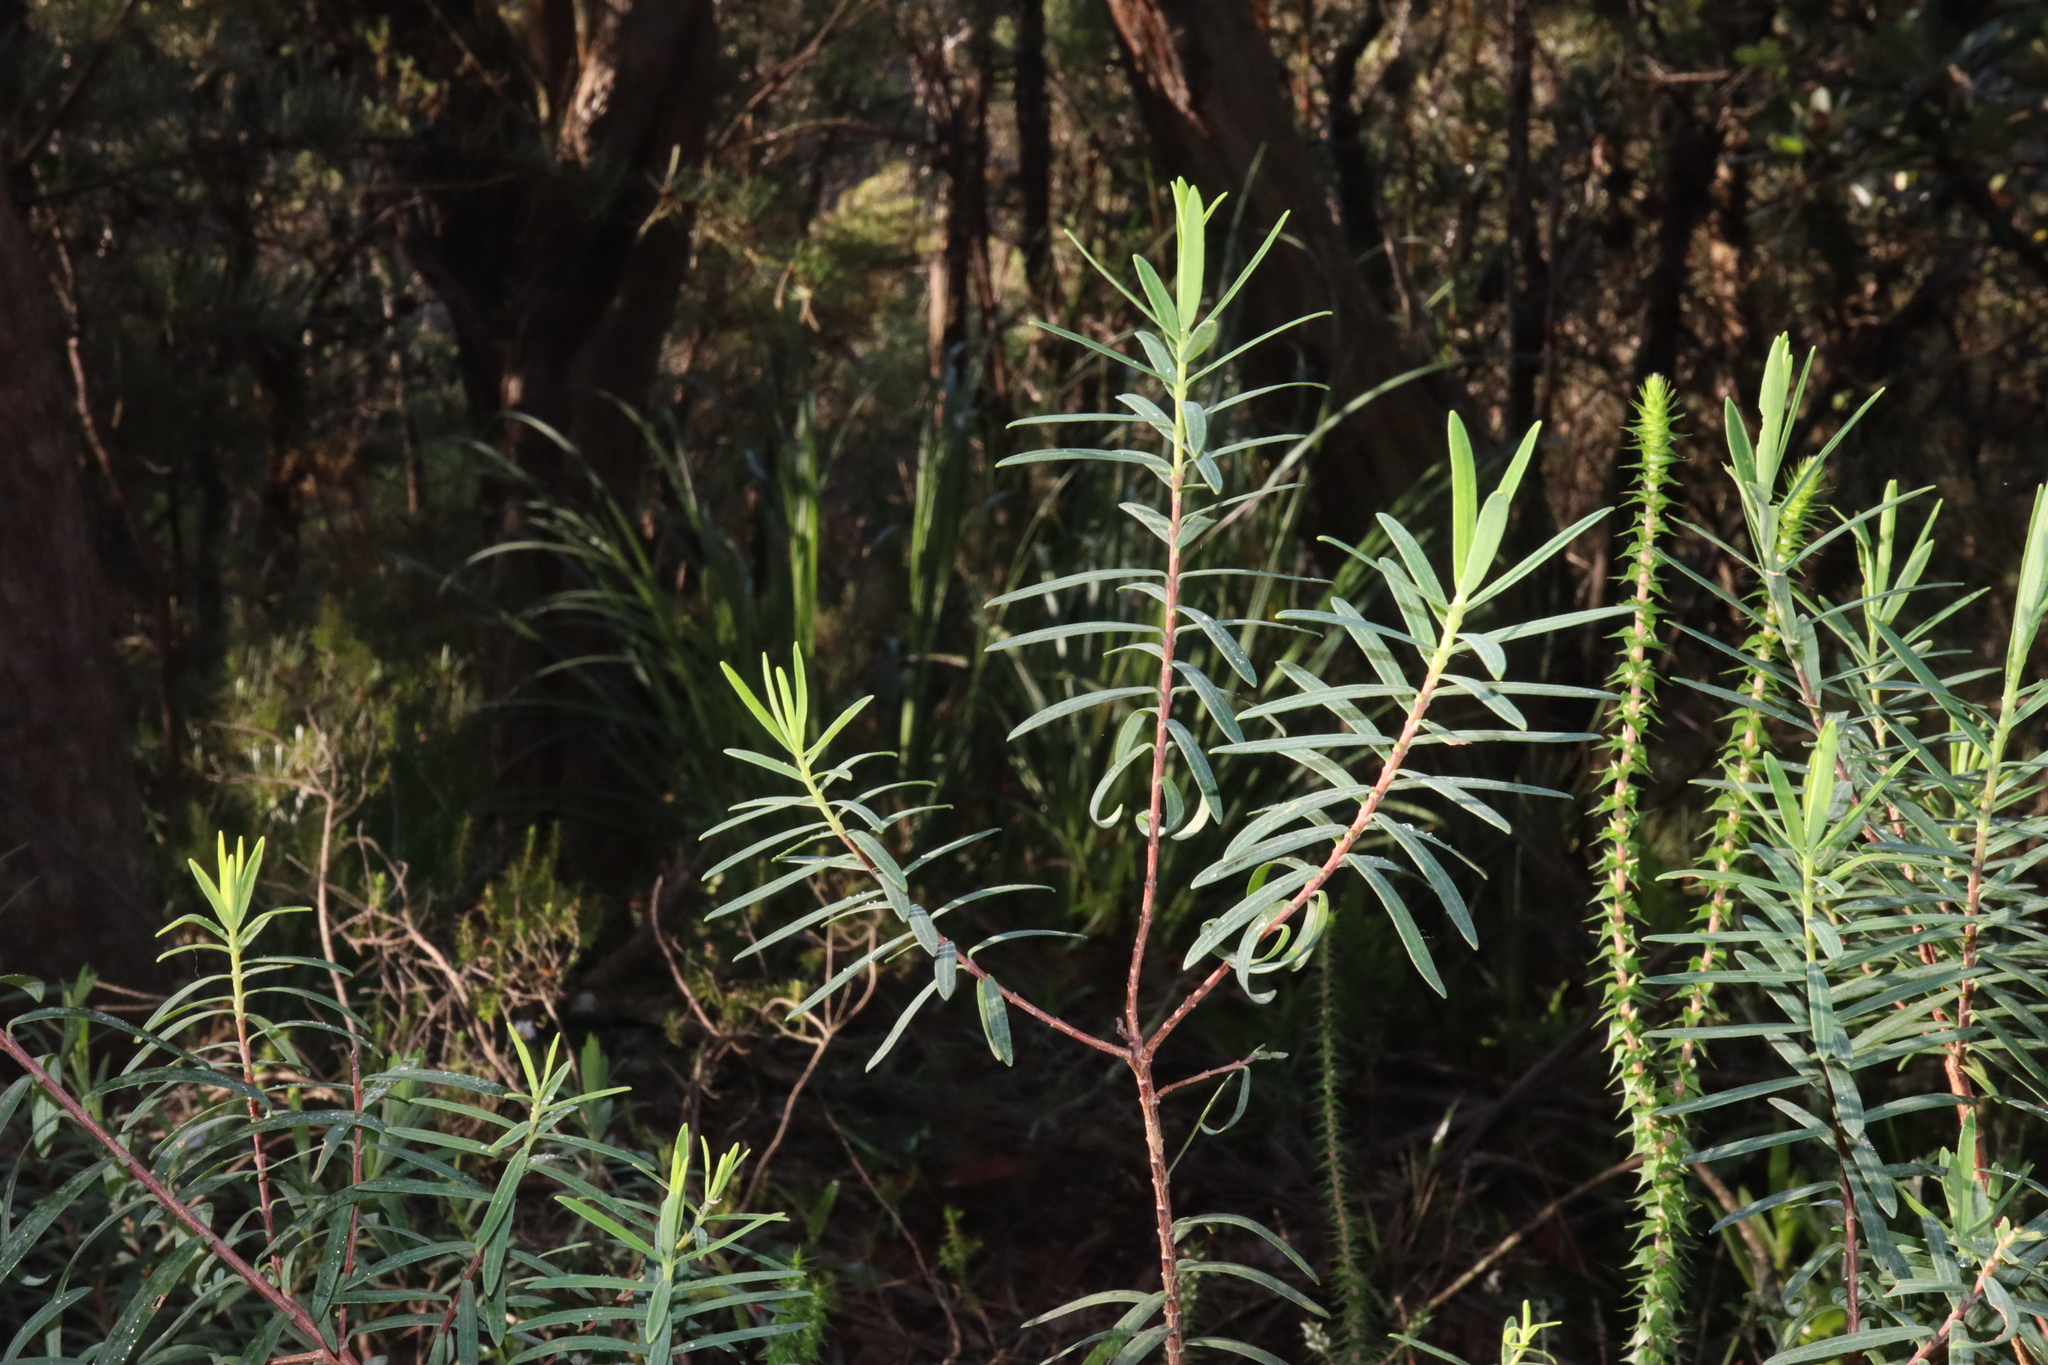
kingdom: Plantae
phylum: Tracheophyta
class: Magnoliopsida
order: Malvales
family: Thymelaeaceae
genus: Pimelea
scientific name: Pimelea linifolia
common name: Queen-of-the-bush
